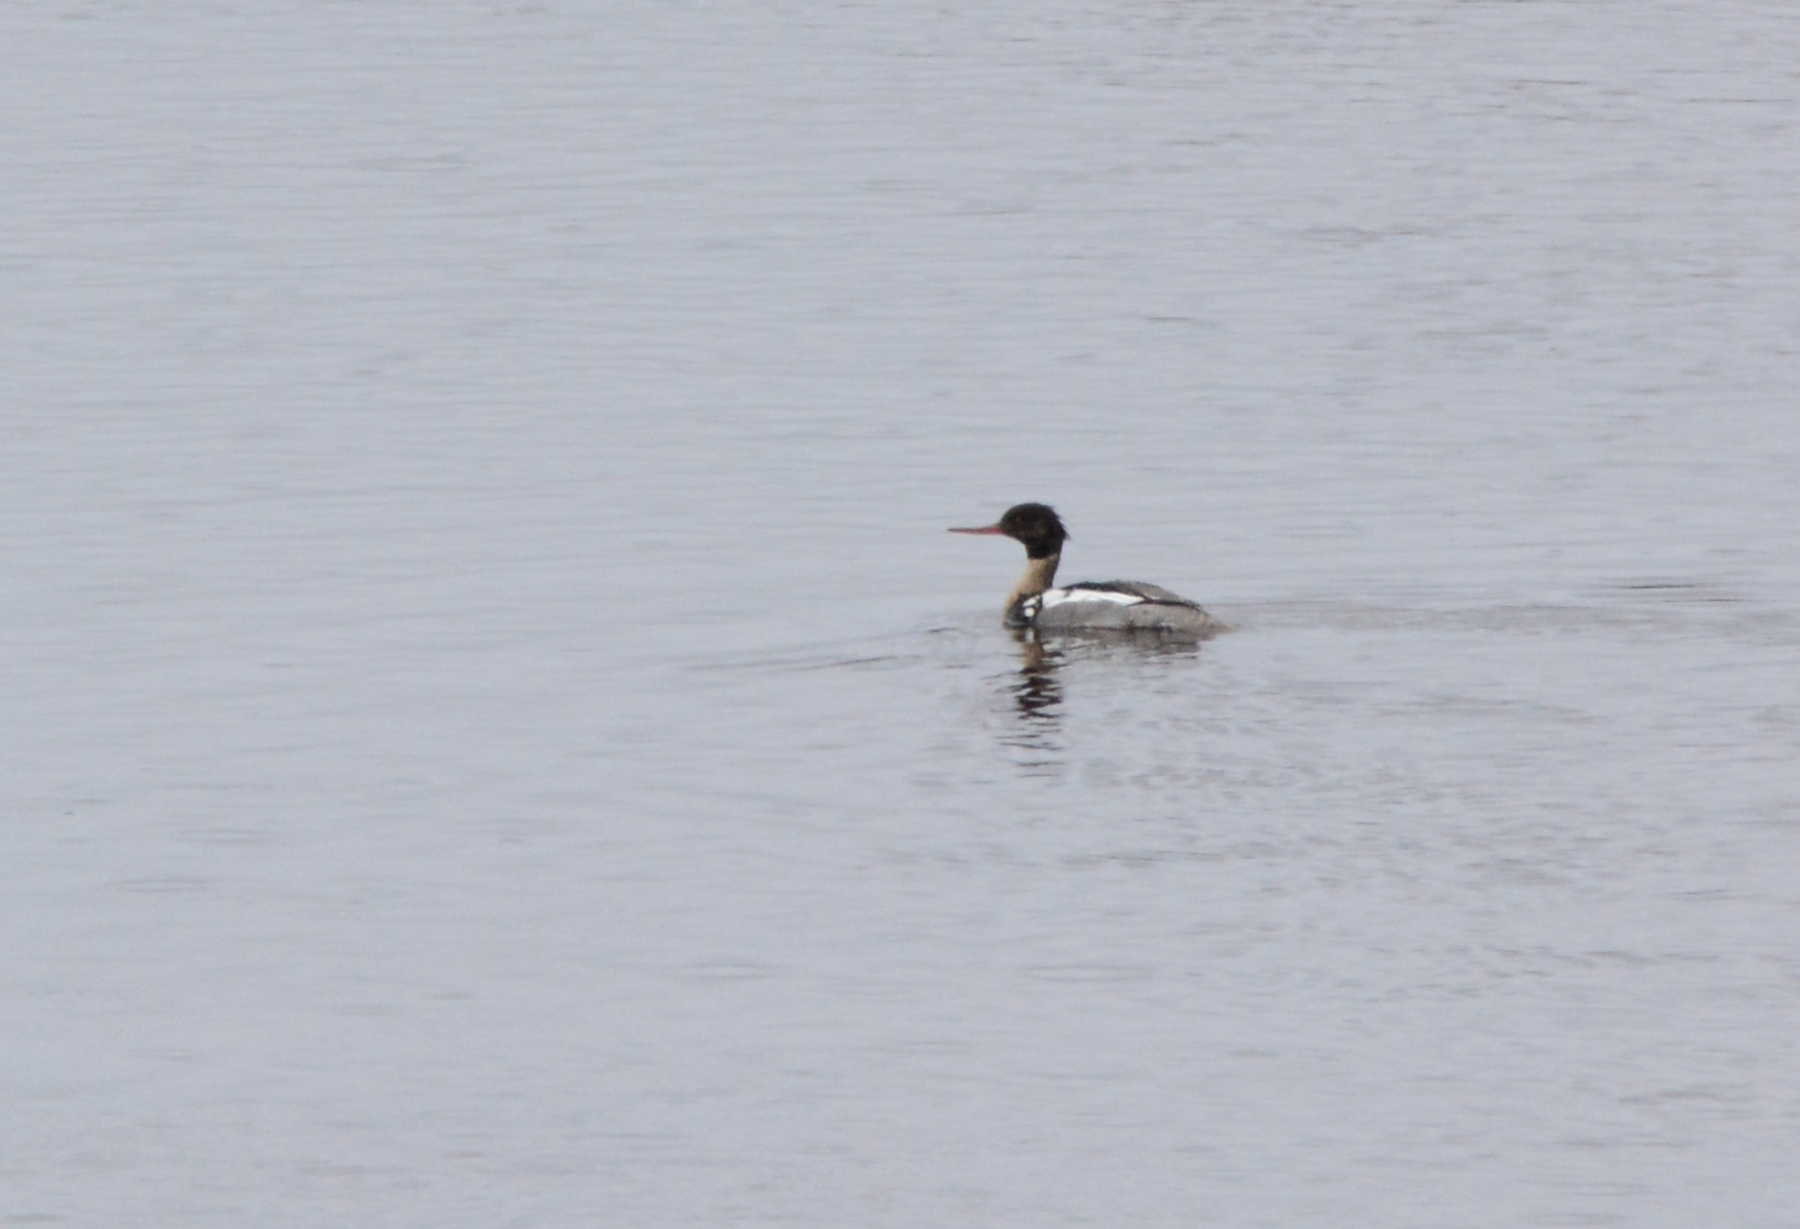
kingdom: Animalia
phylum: Chordata
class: Aves
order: Anseriformes
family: Anatidae
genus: Mergus
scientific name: Mergus serrator
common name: Red-breasted merganser
